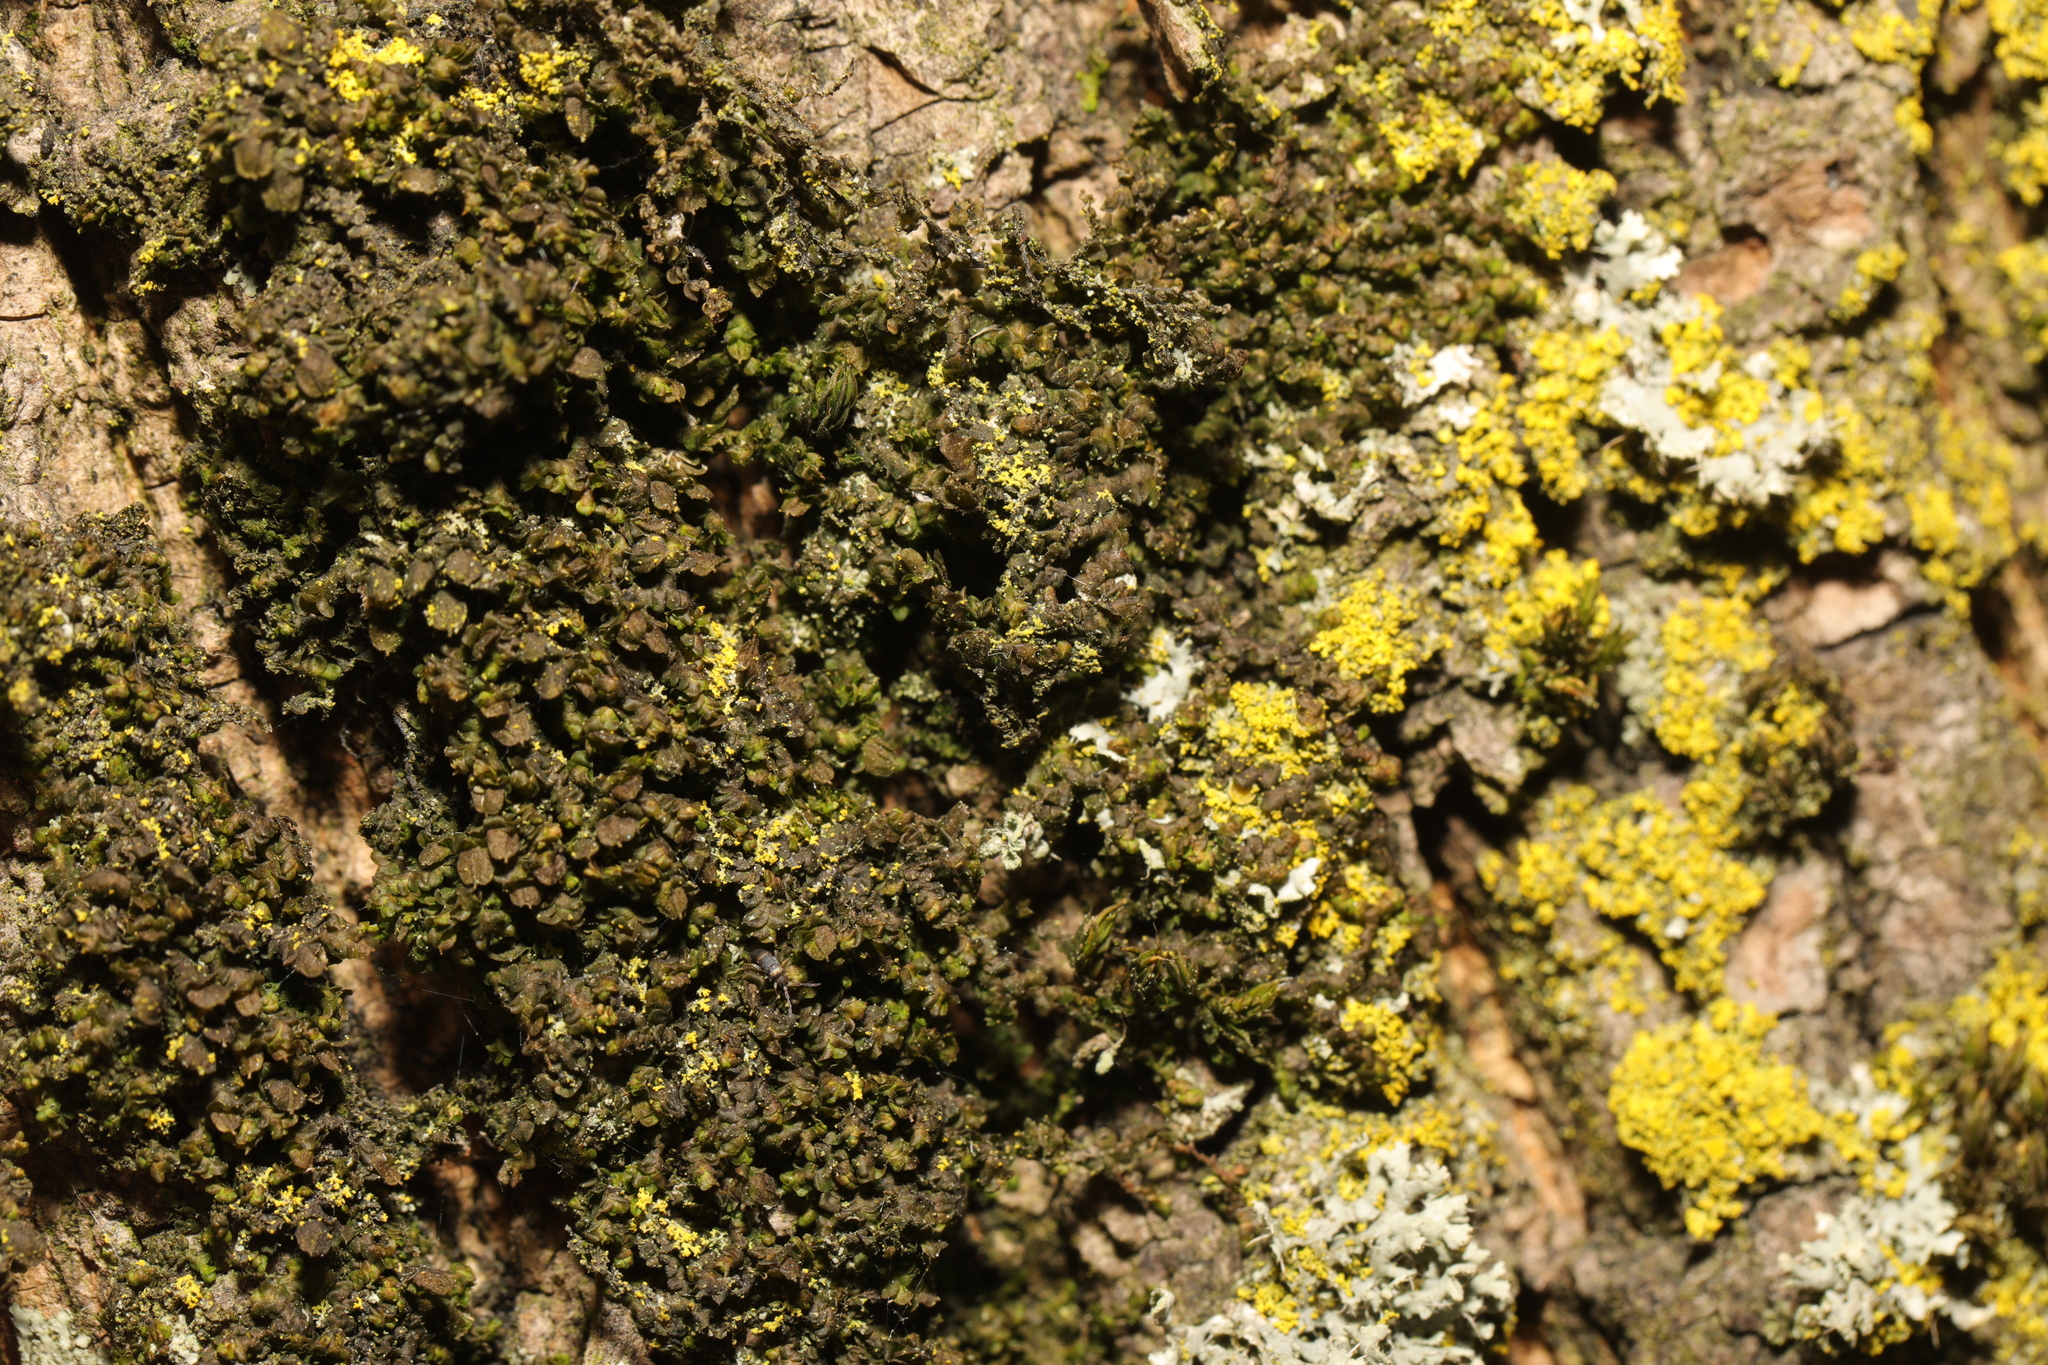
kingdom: Plantae
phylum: Marchantiophyta
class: Jungermanniopsida
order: Porellales
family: Frullaniaceae
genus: Frullania
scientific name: Frullania dilatata
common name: Dilated scalewort
